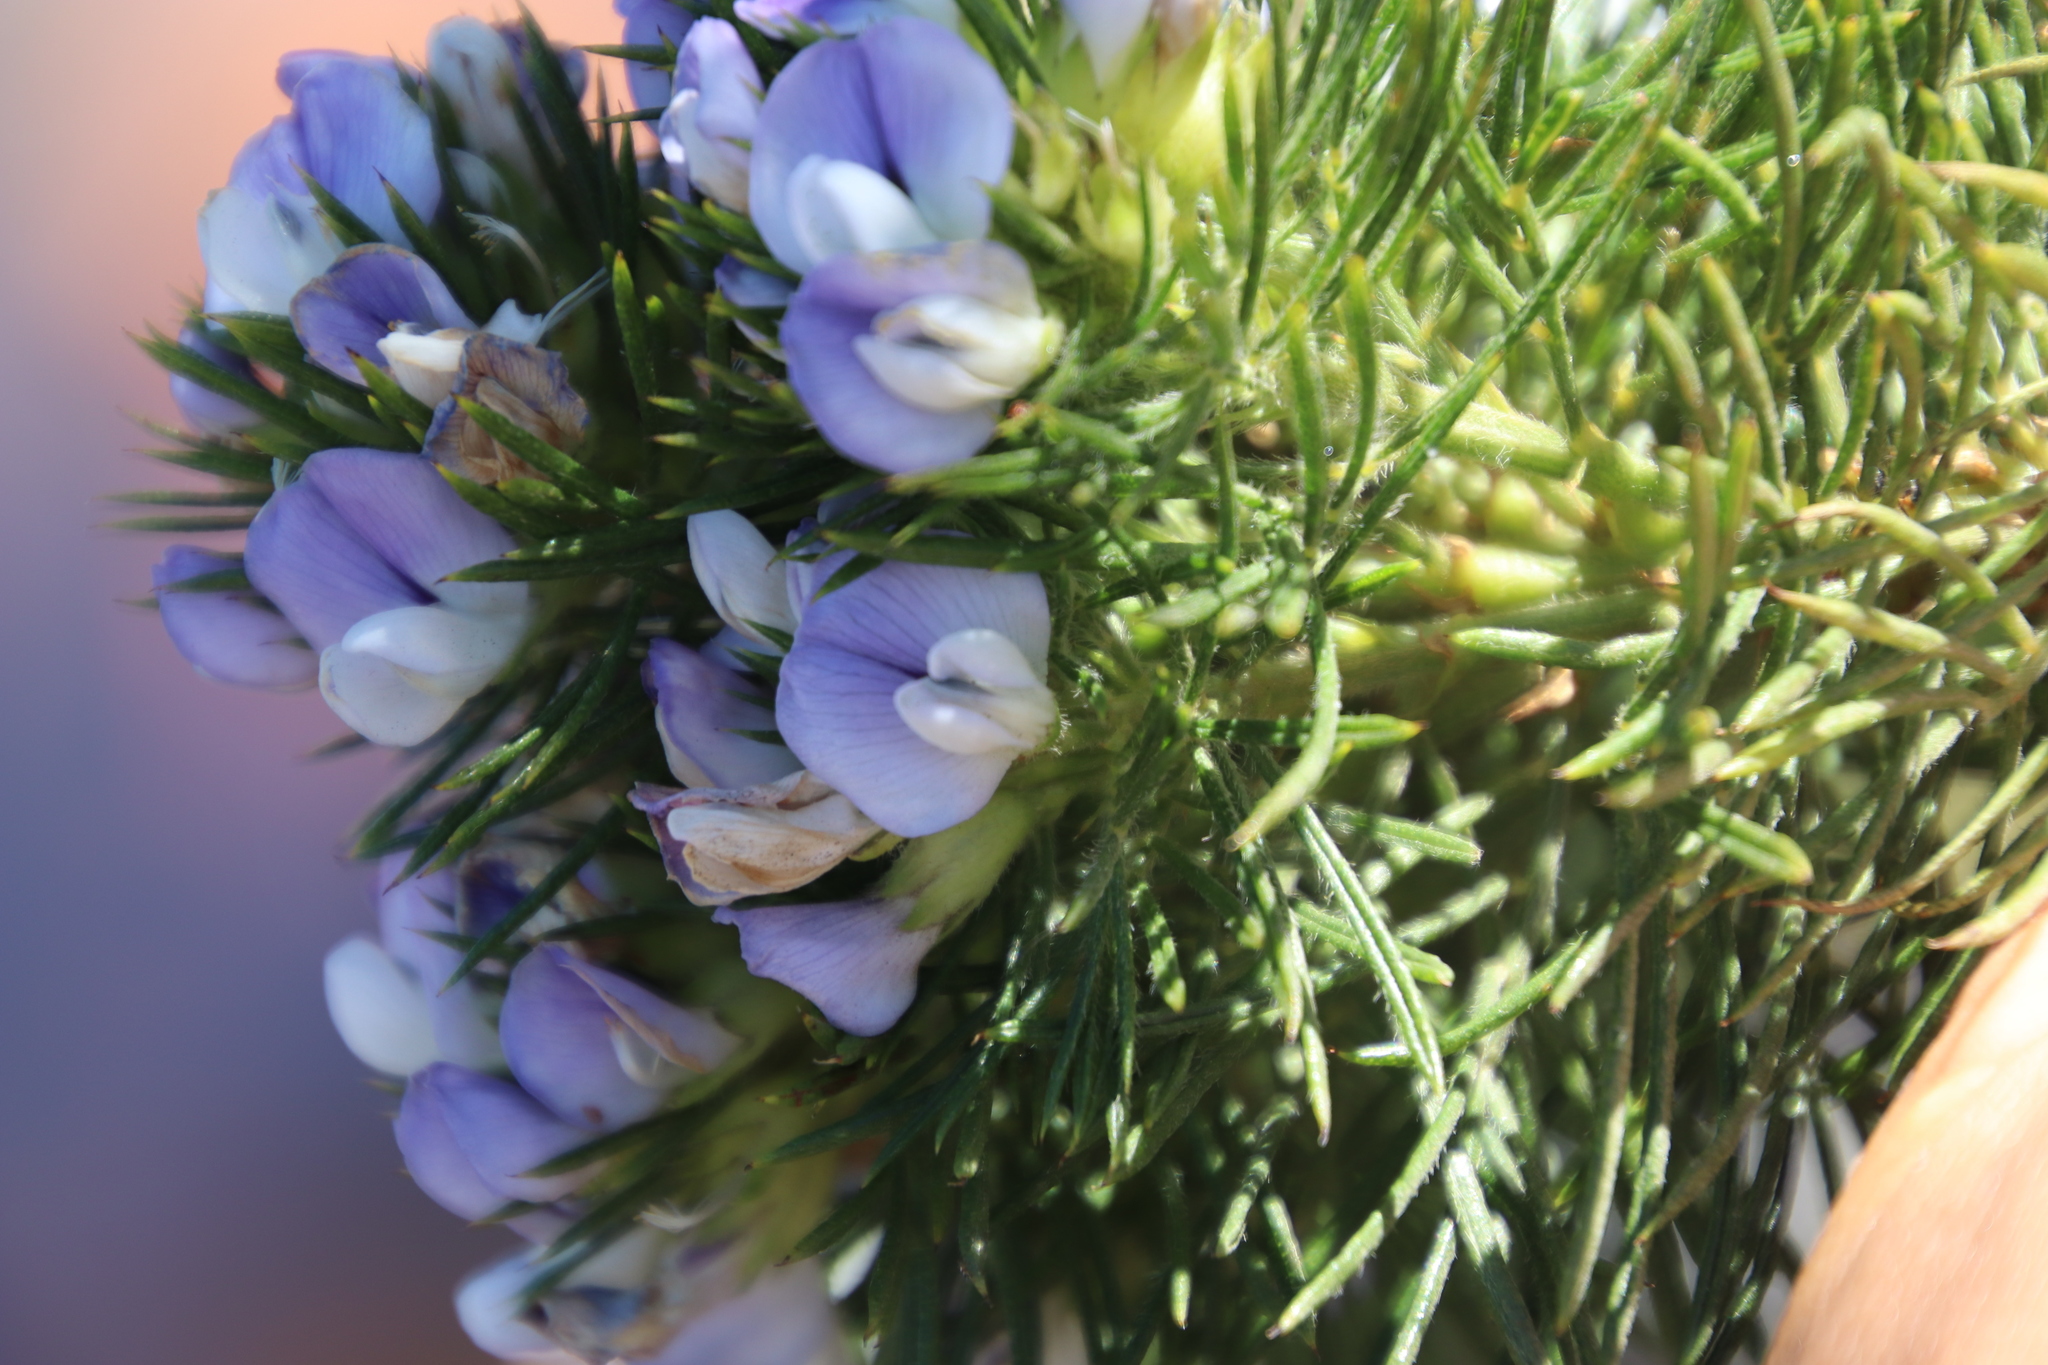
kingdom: Plantae
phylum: Tracheophyta
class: Magnoliopsida
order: Fabales
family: Fabaceae
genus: Psoralea
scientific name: Psoralea pinnata
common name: African scurfpea
